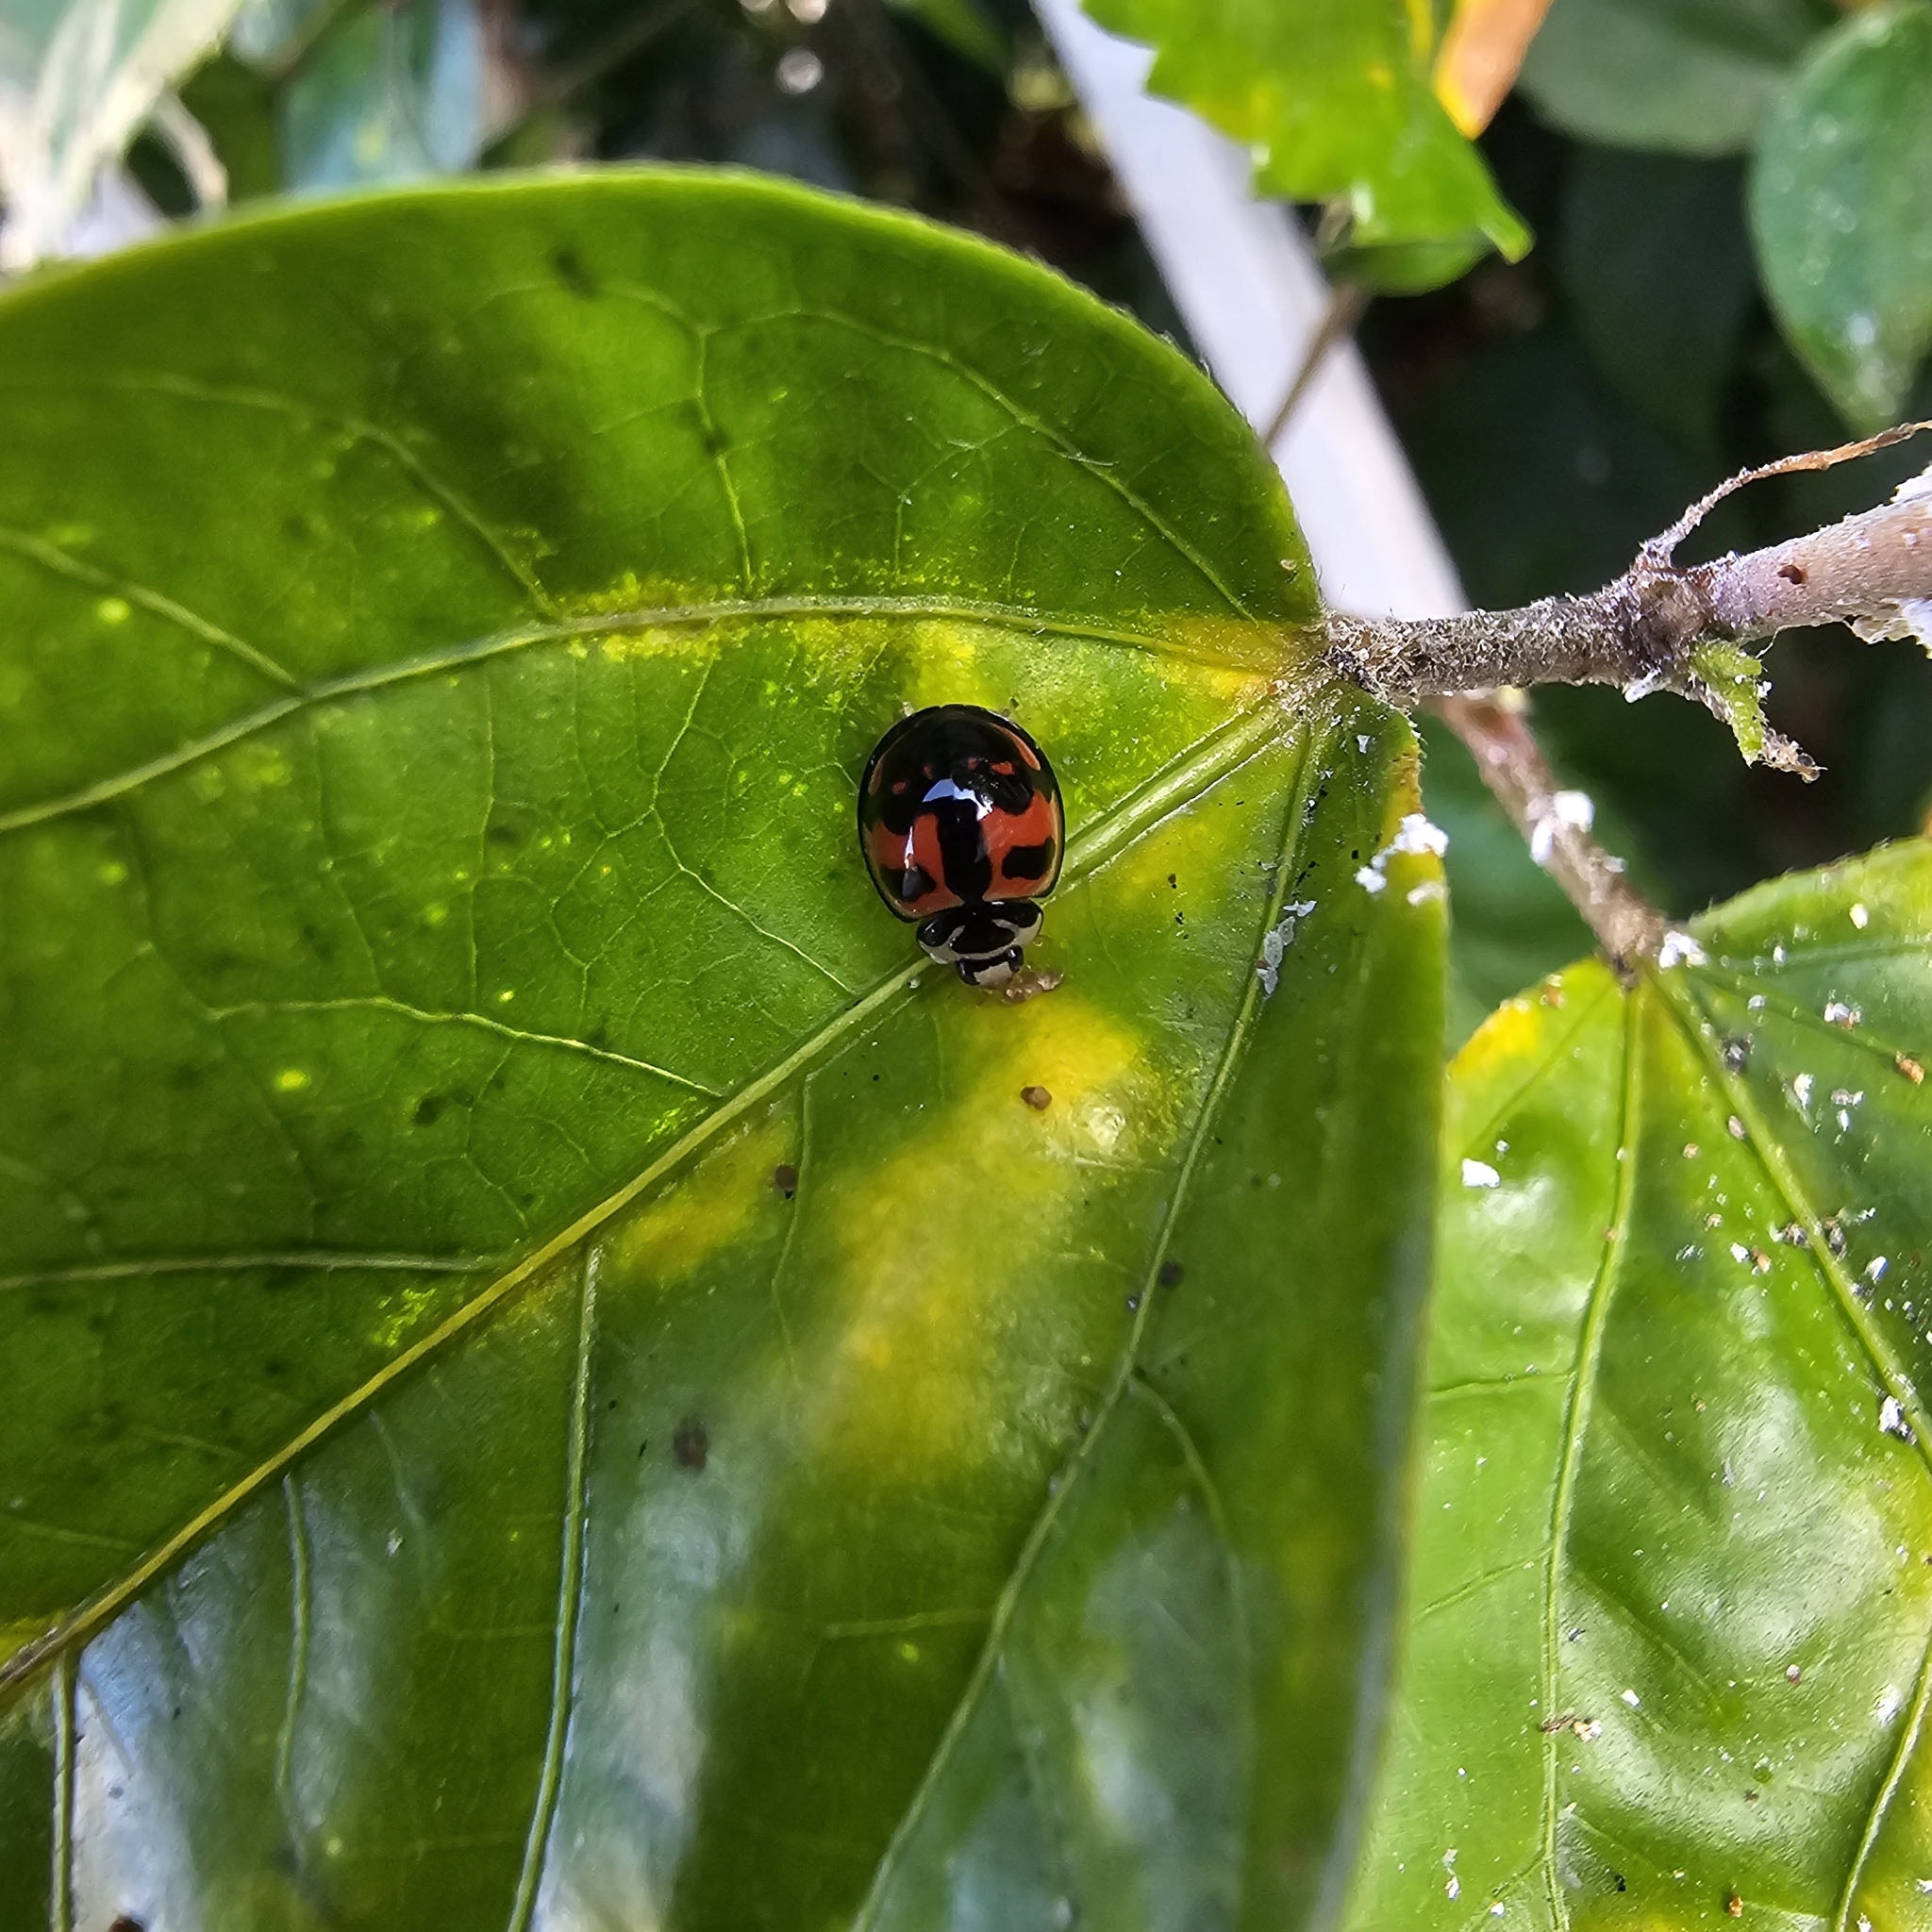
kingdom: Animalia
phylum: Arthropoda
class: Insecta
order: Coleoptera
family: Coccinellidae
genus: Cheilomenes
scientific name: Cheilomenes sexmaculata
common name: Ladybird beetle
